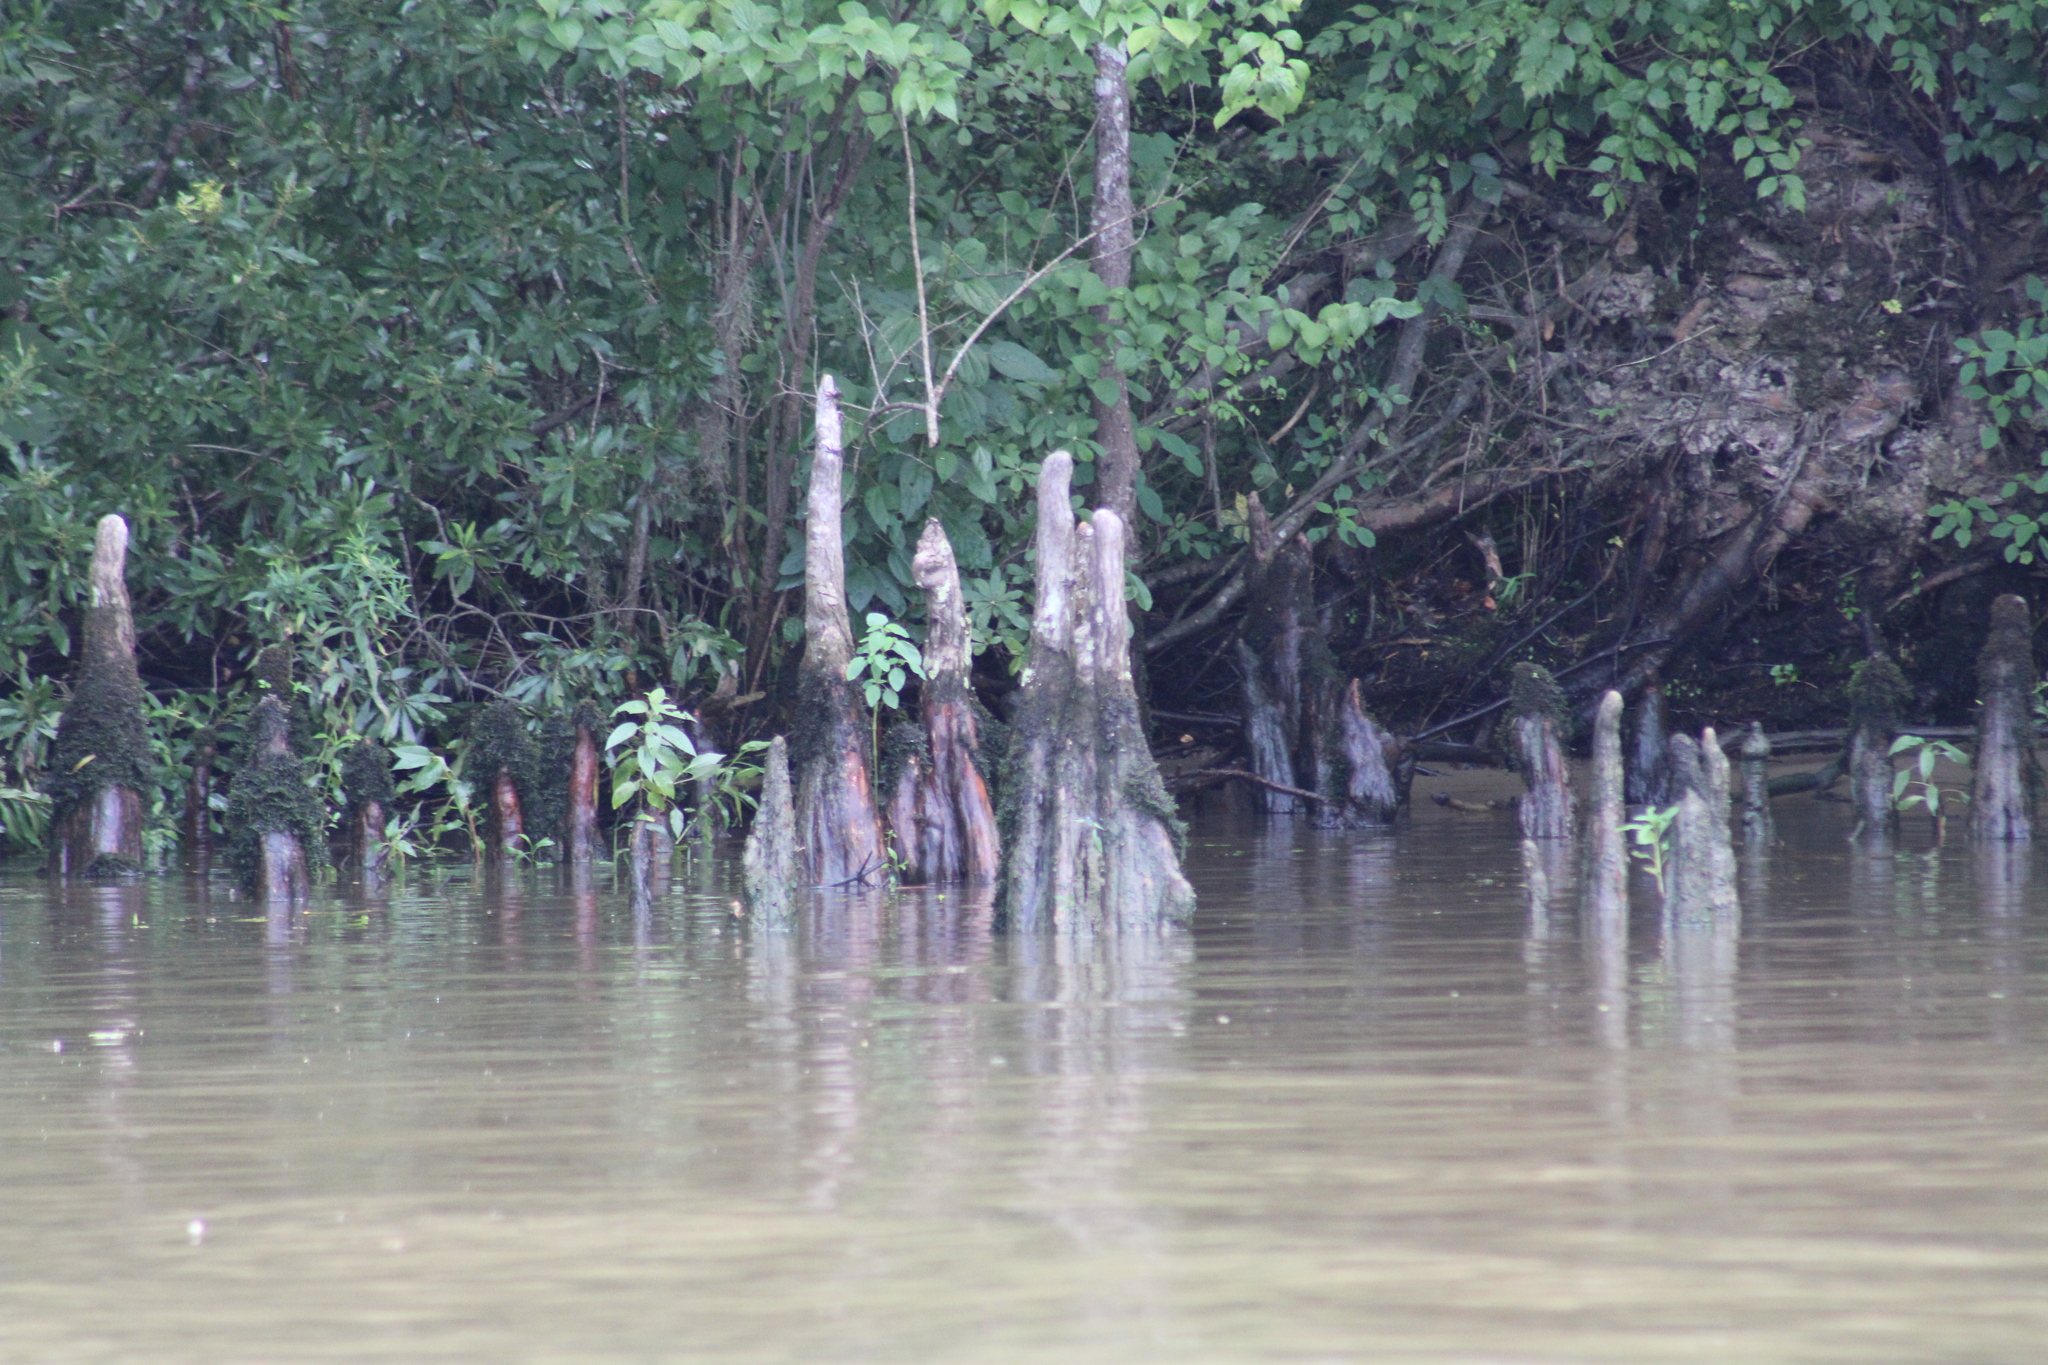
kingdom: Plantae
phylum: Tracheophyta
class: Pinopsida
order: Pinales
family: Cupressaceae
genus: Taxodium
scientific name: Taxodium distichum
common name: Bald cypress
